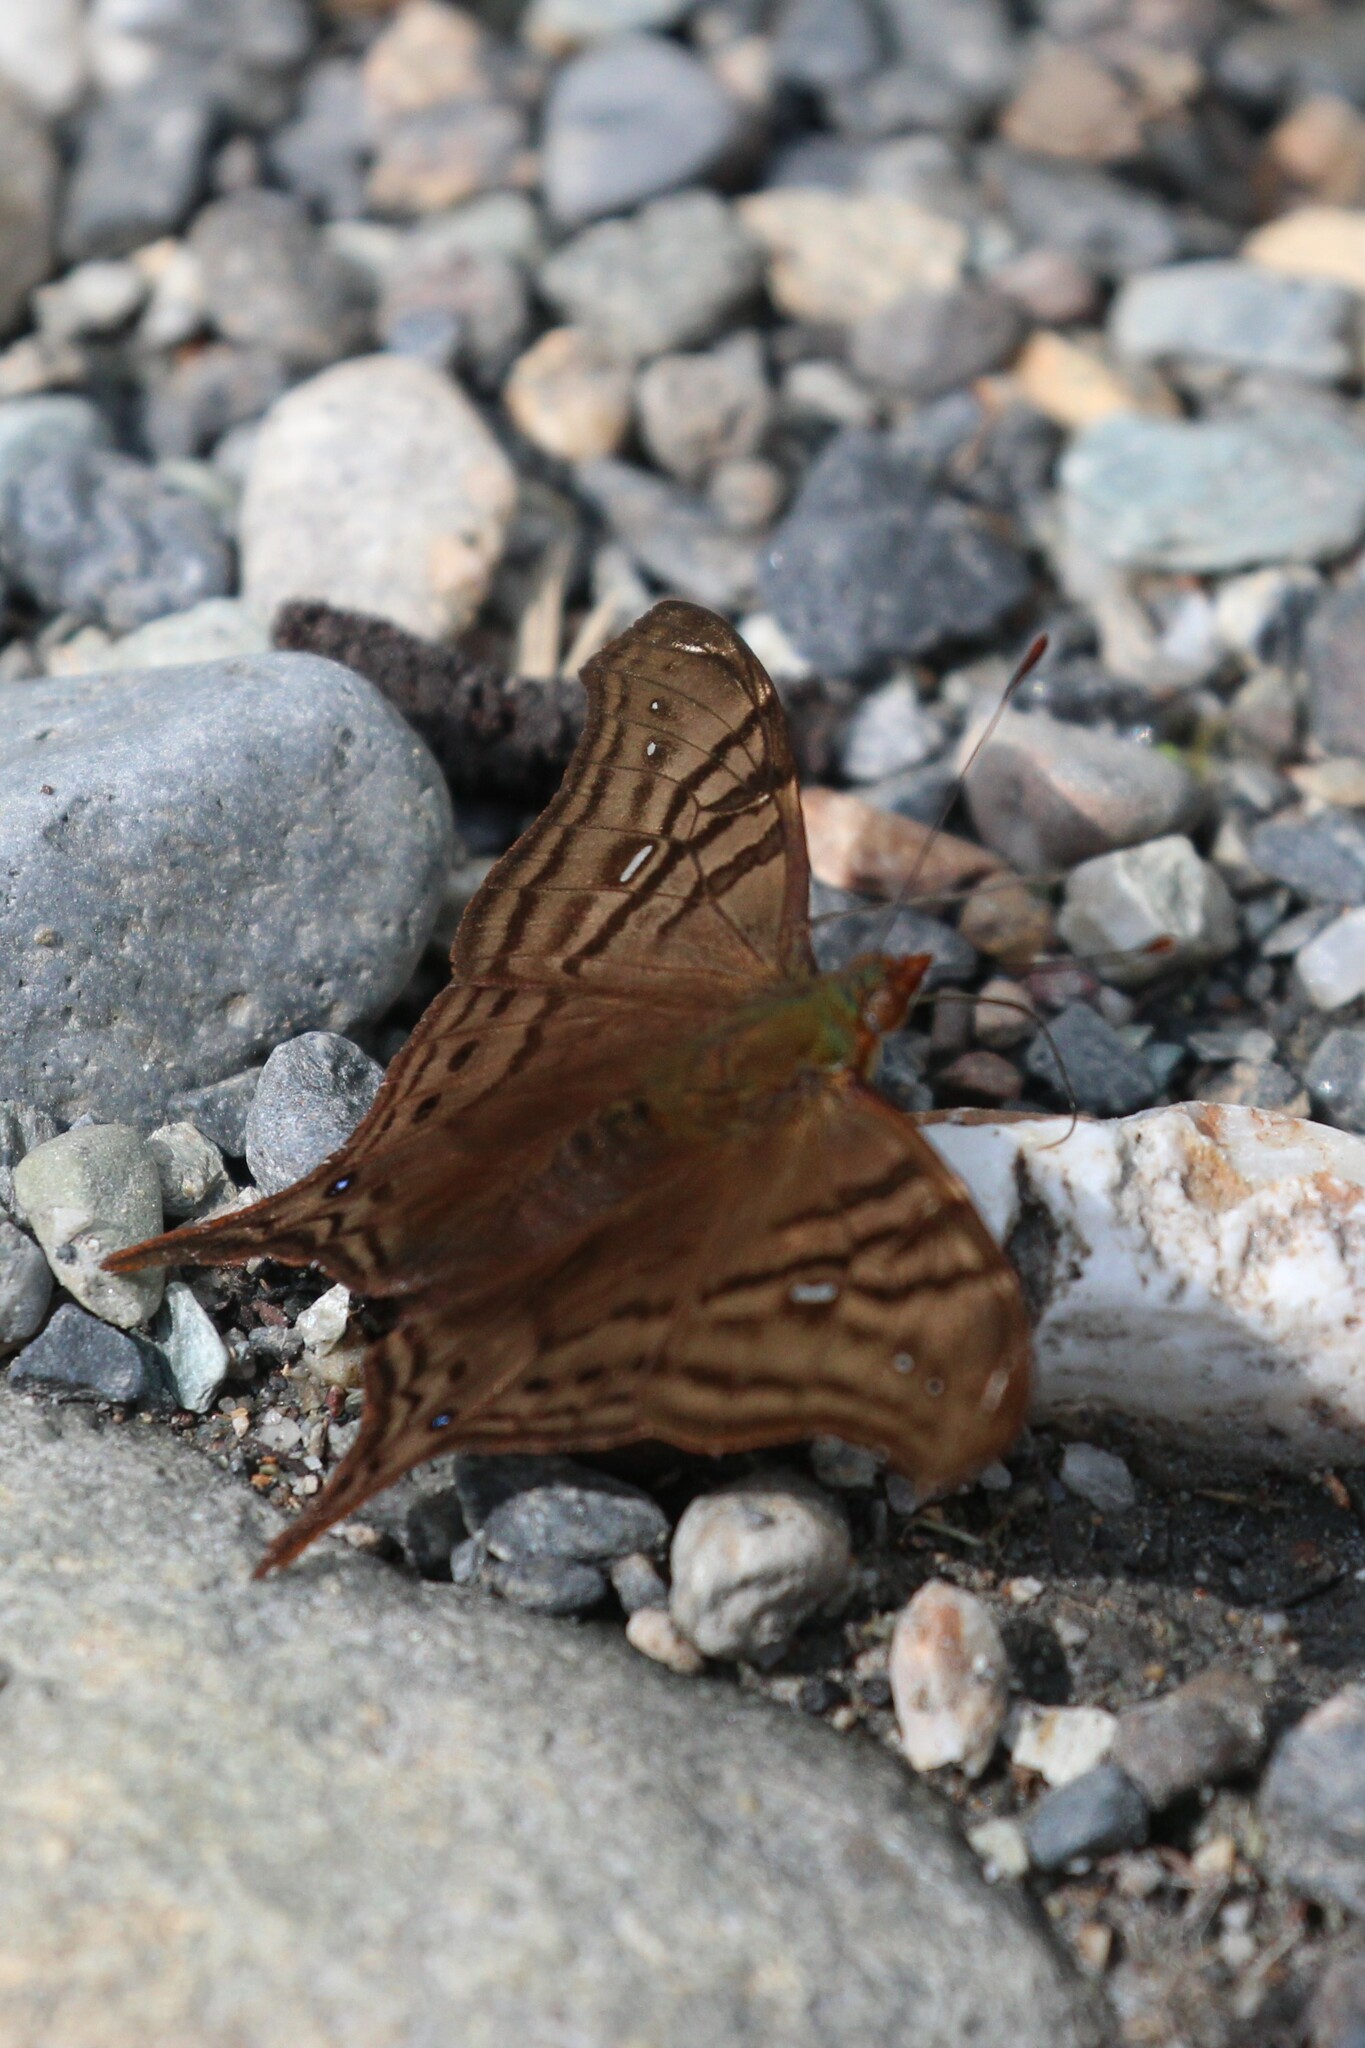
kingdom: Animalia
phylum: Arthropoda
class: Insecta
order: Lepidoptera
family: Nymphalidae
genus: Hypanartia
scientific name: Hypanartia dione
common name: Banded mapwing
